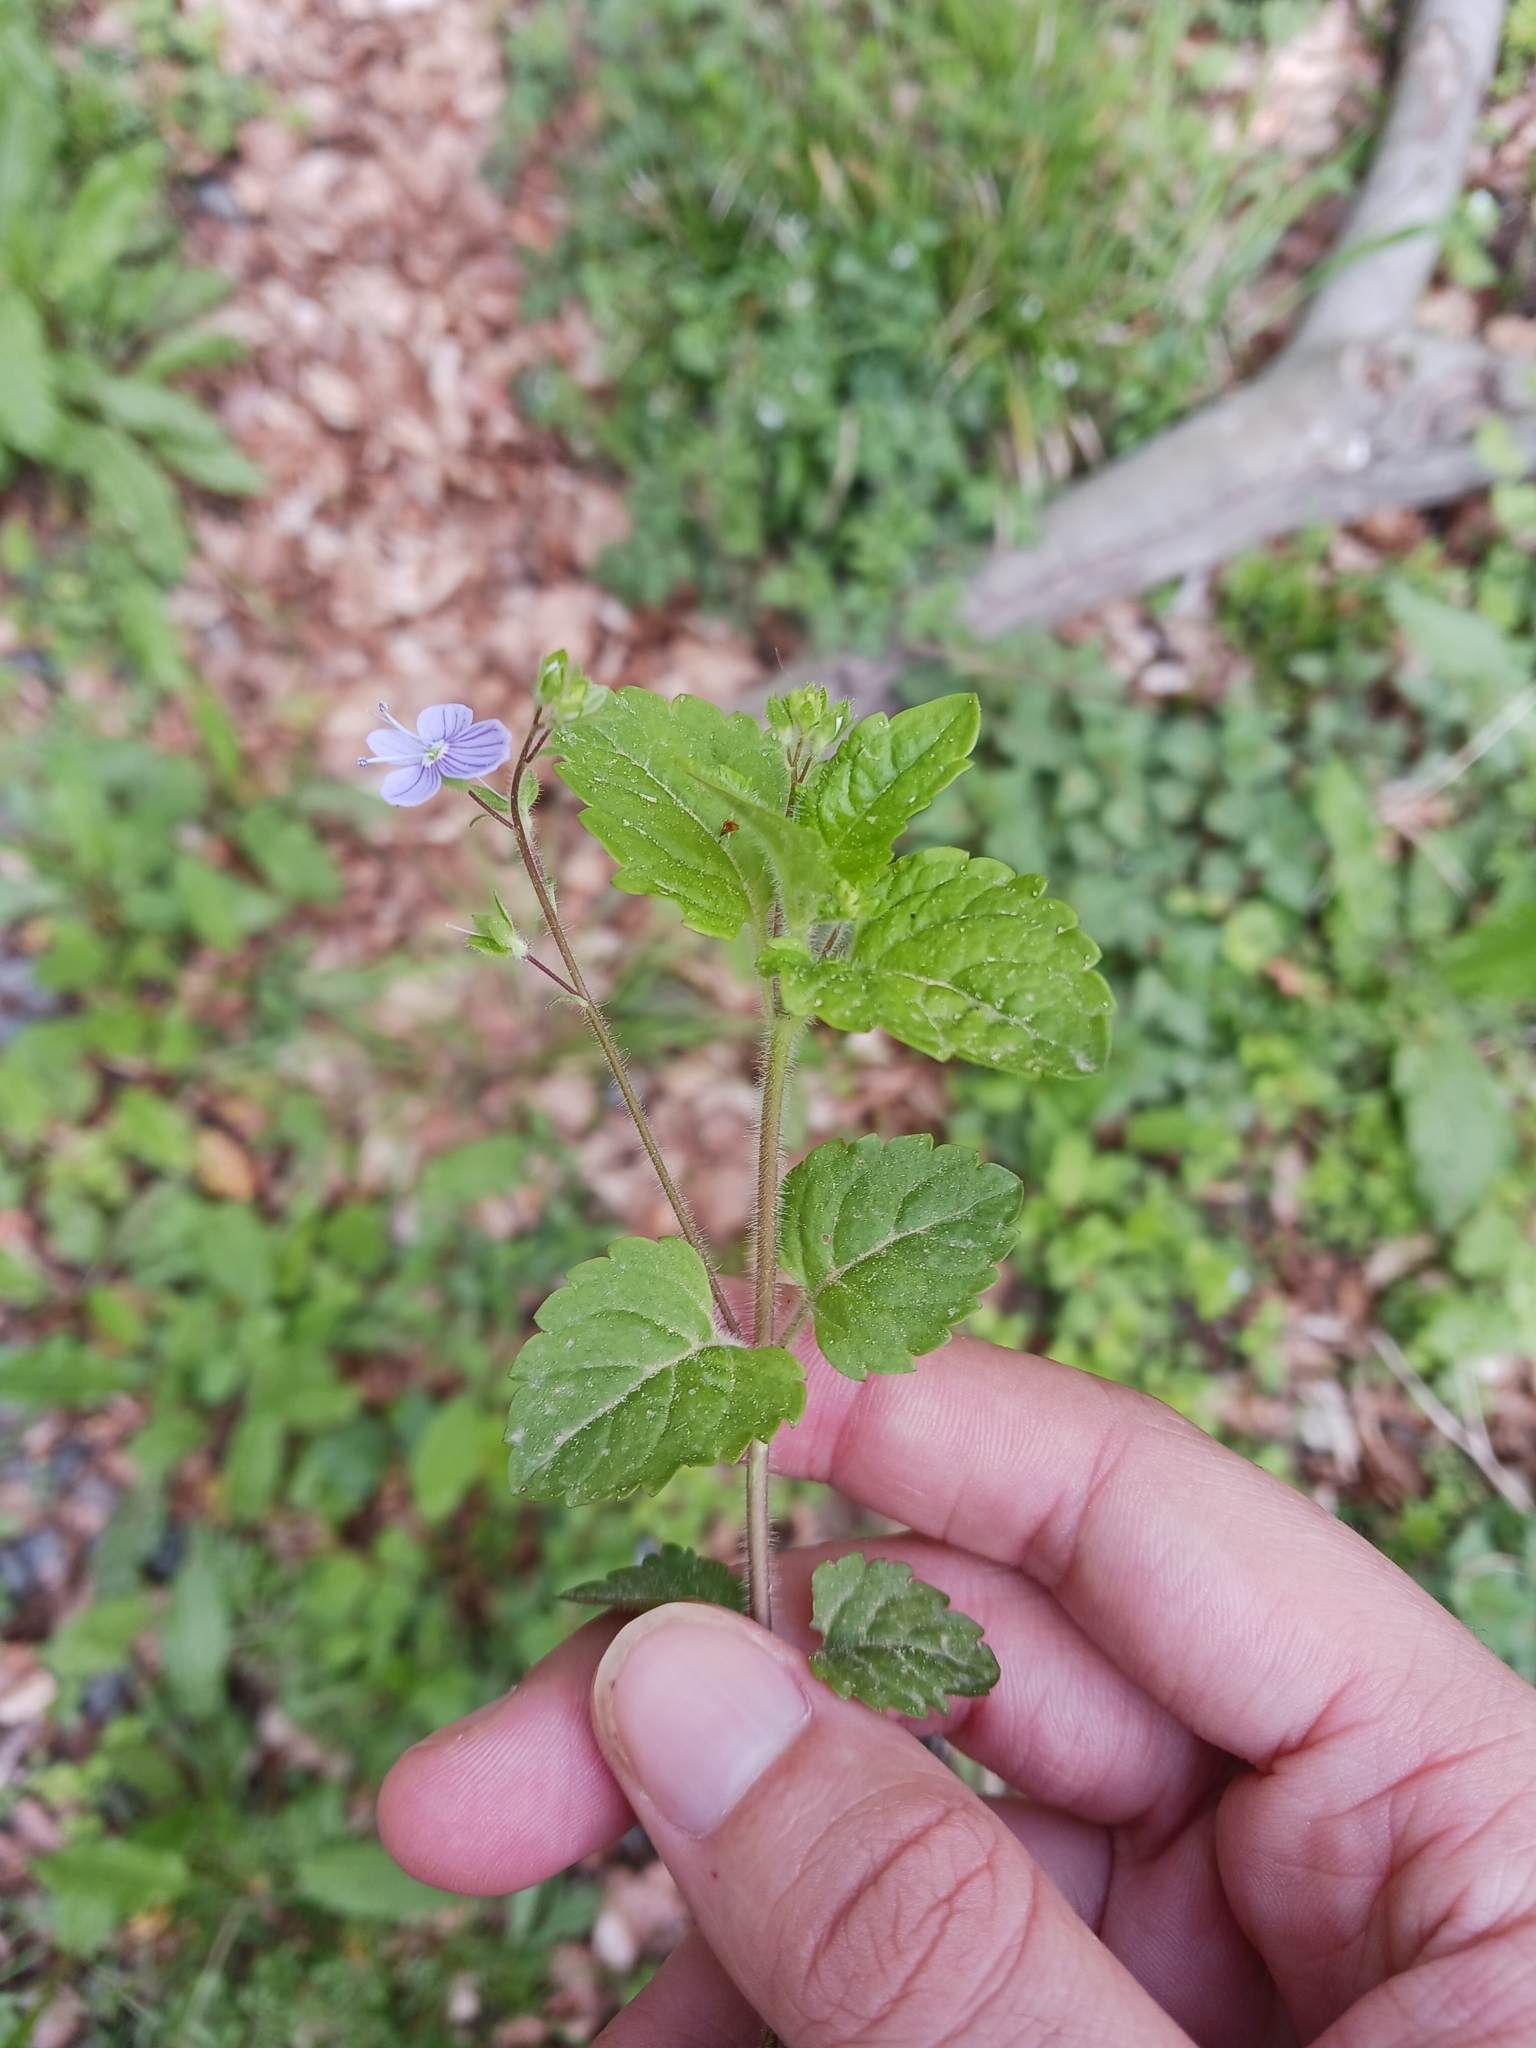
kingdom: Plantae
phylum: Tracheophyta
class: Magnoliopsida
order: Lamiales
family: Plantaginaceae
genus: Veronica
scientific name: Veronica montana
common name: Wood speedwell
